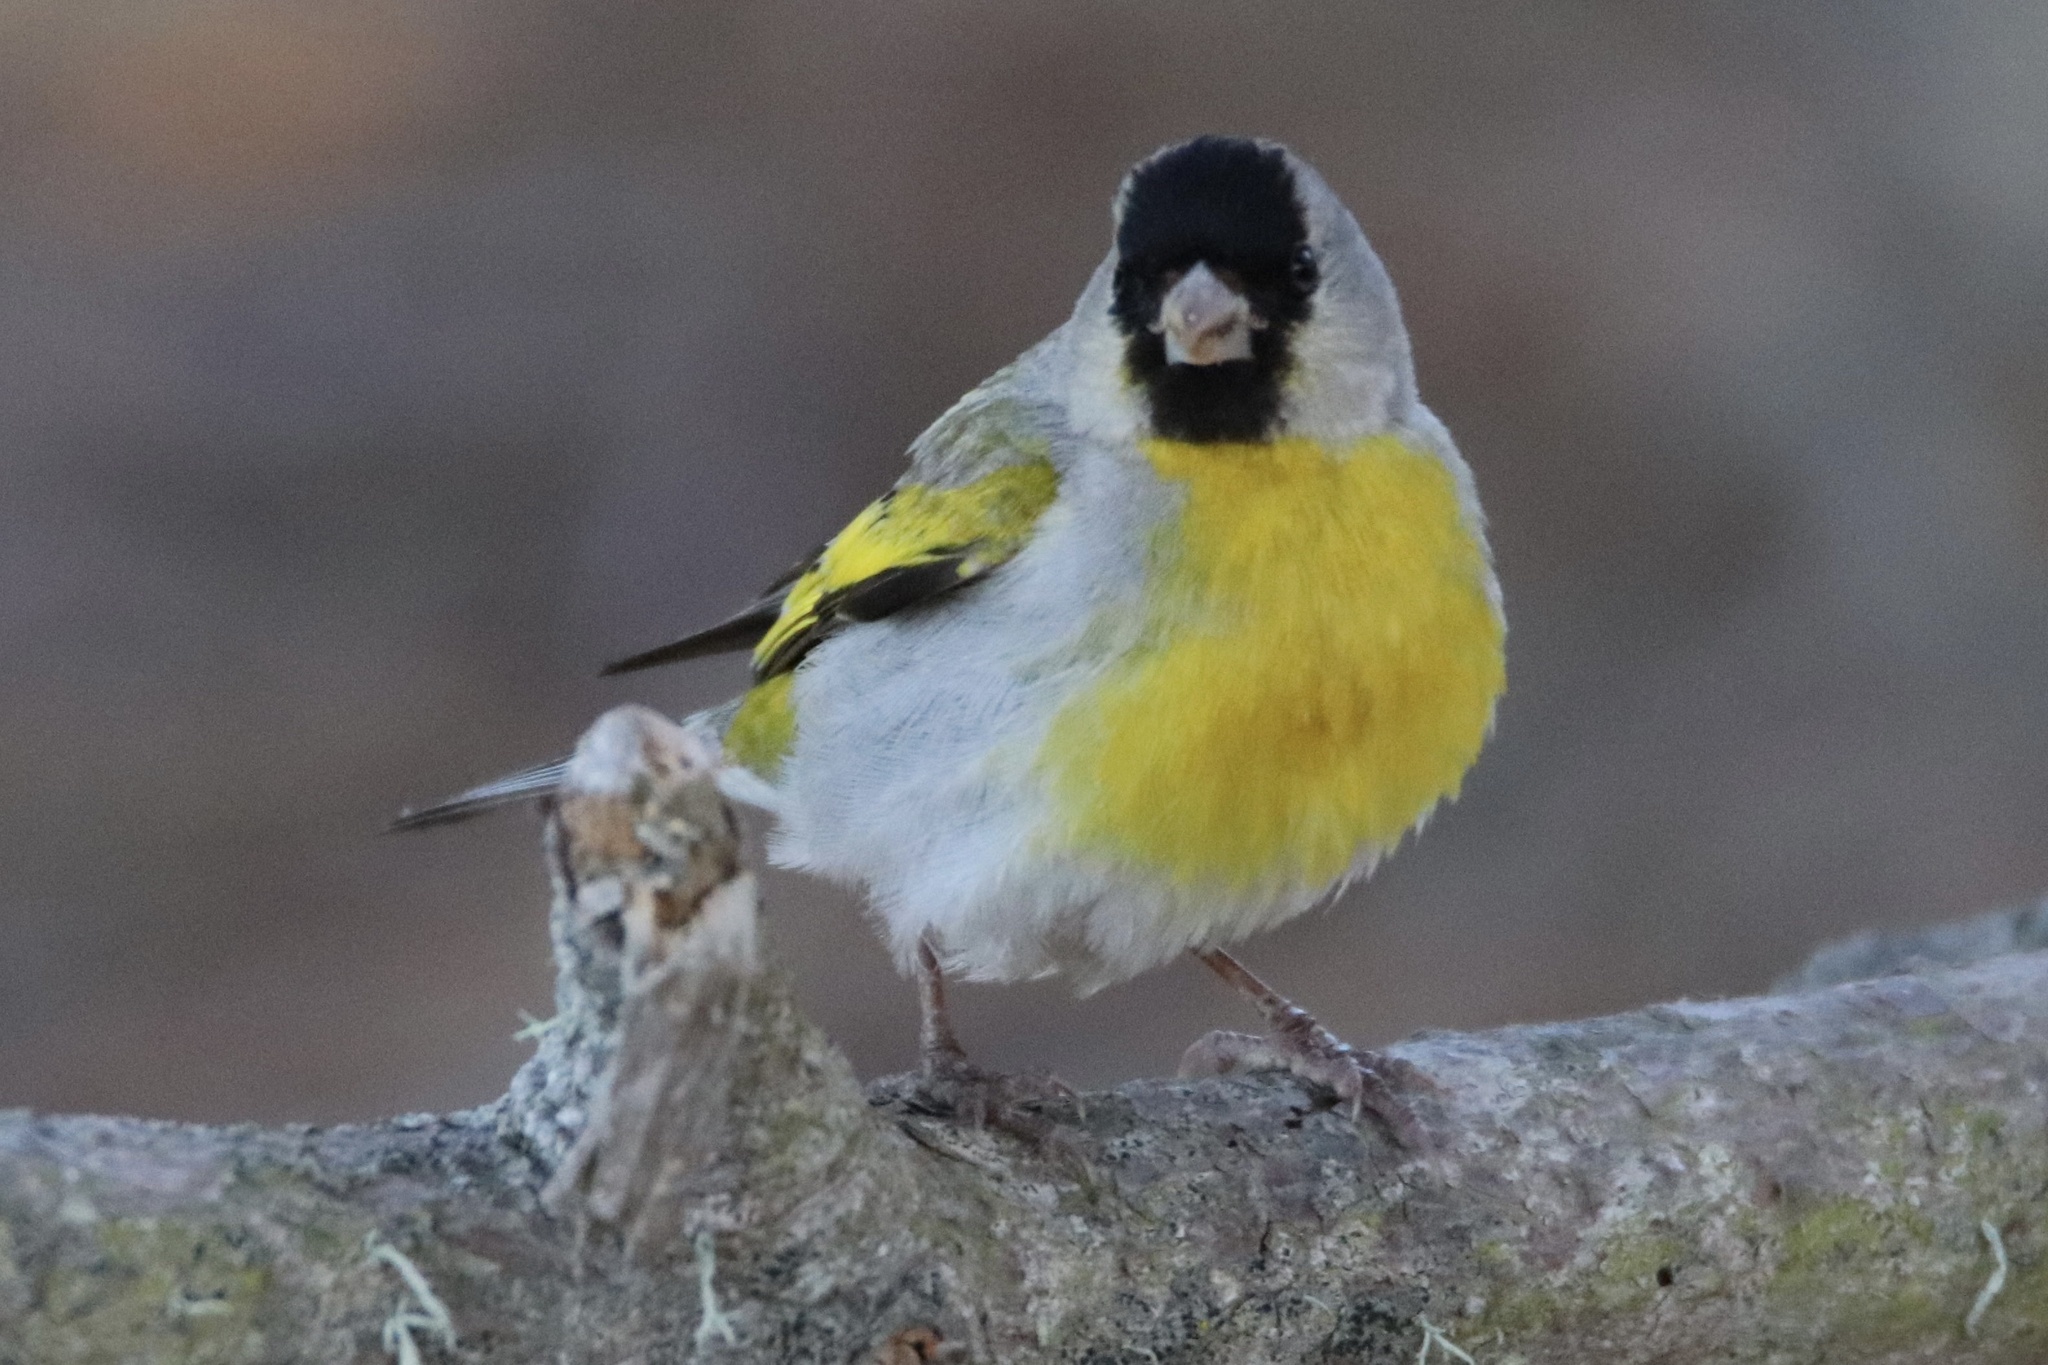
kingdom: Animalia
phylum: Chordata
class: Aves
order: Passeriformes
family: Fringillidae
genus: Spinus
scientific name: Spinus lawrencei
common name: Lawrence's goldfinch
